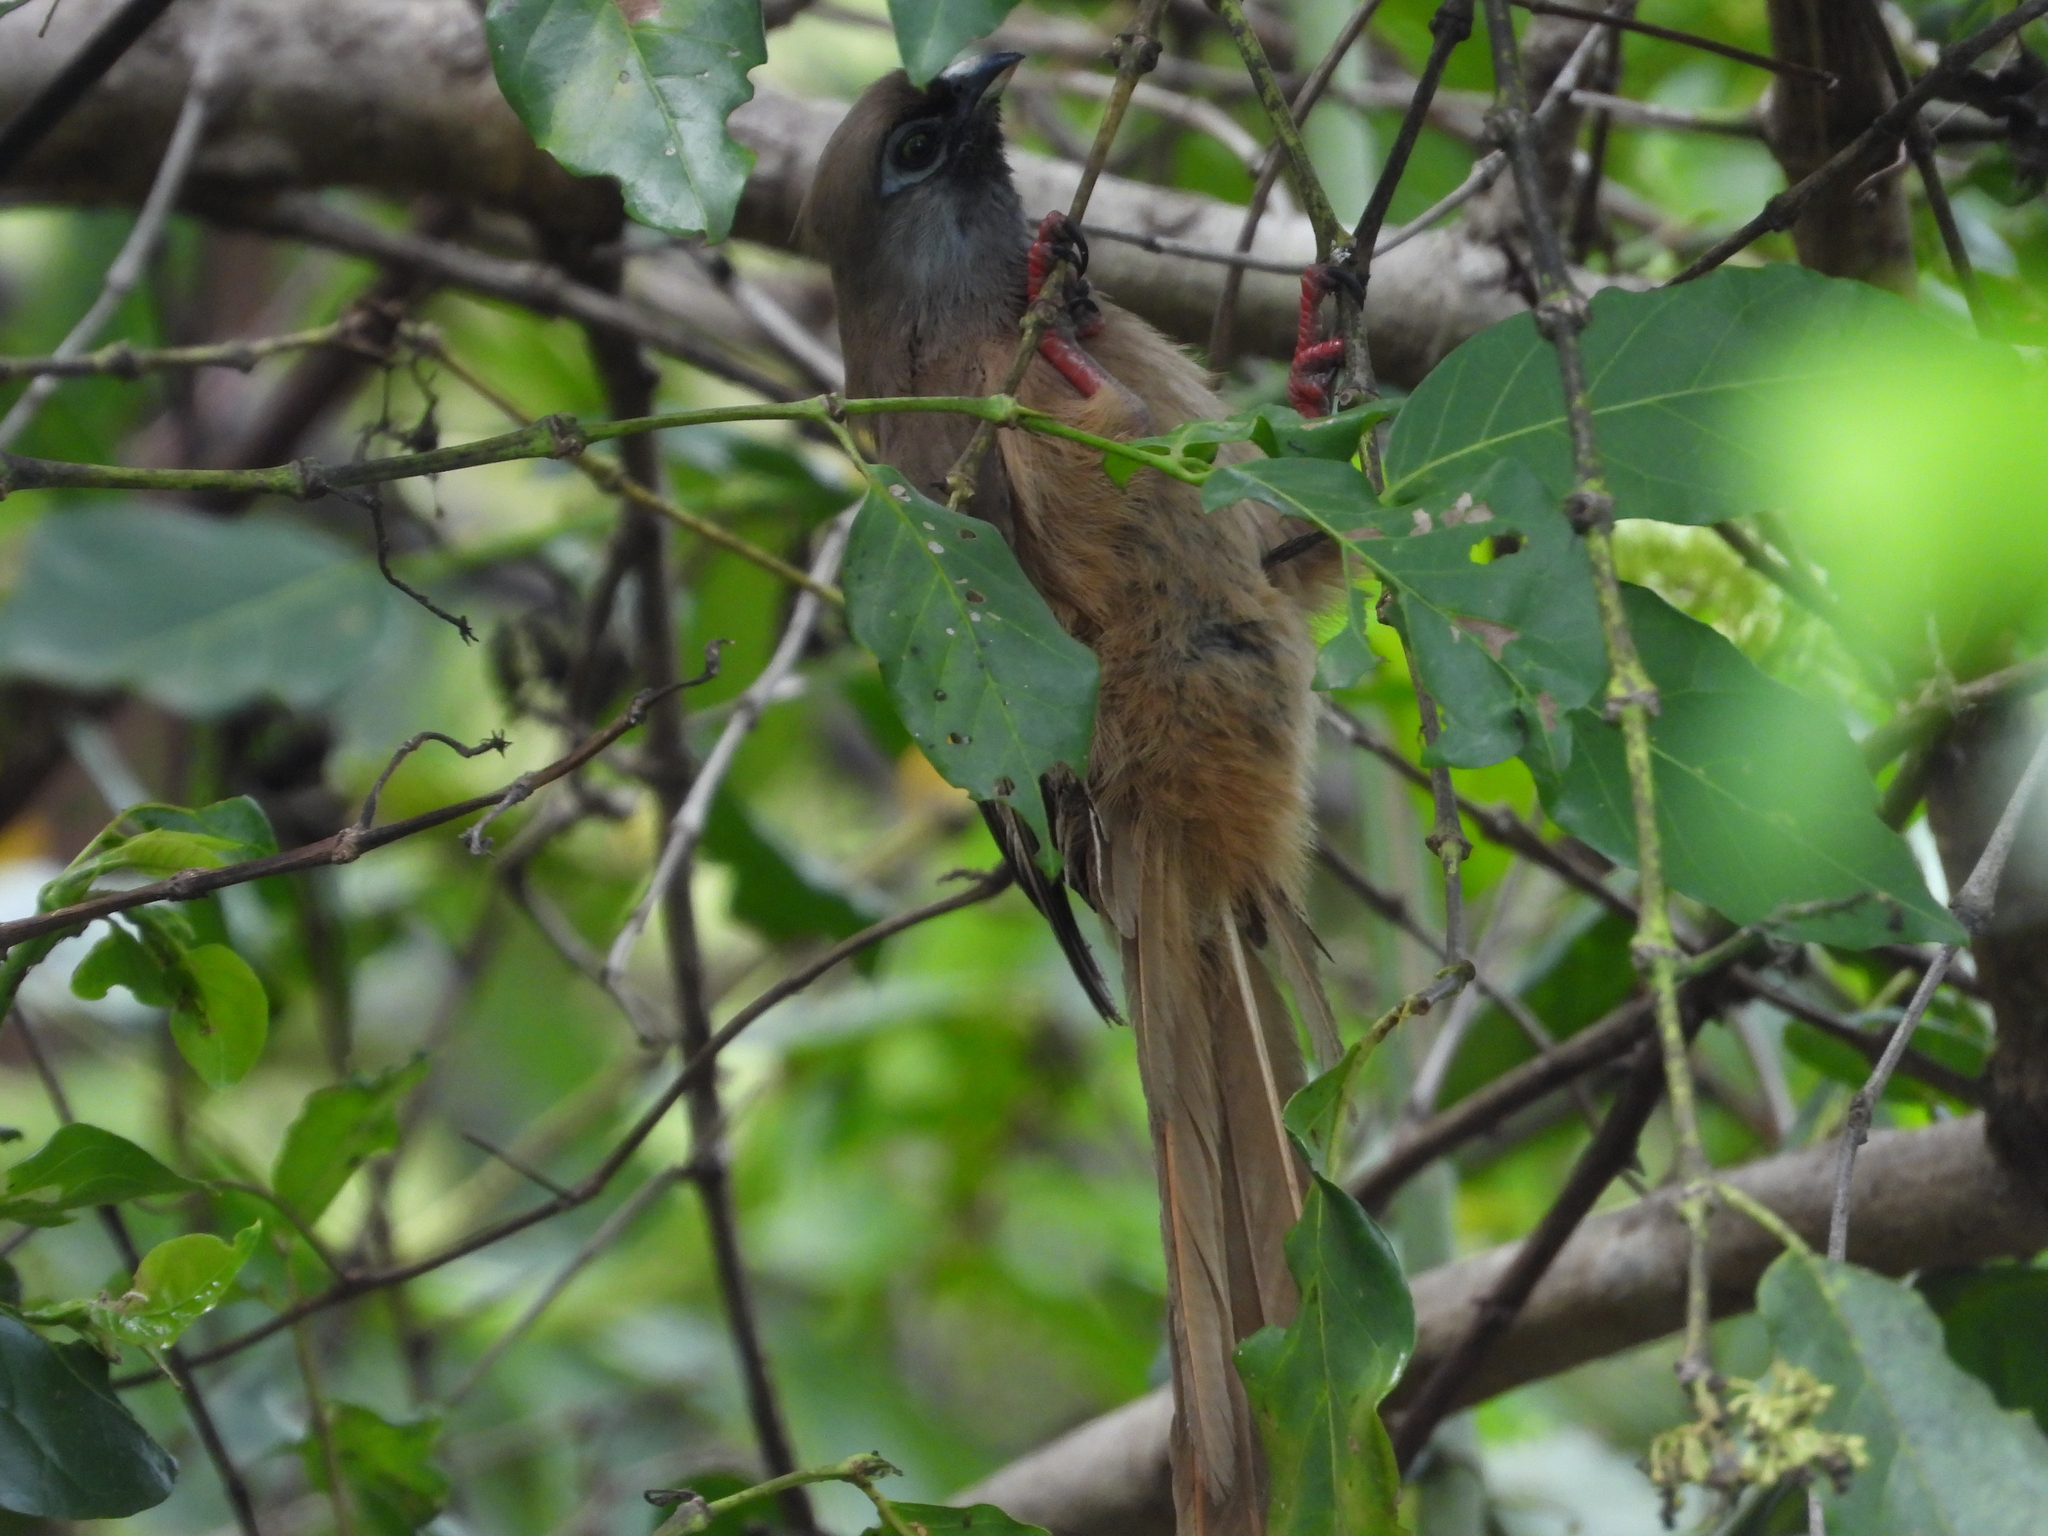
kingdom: Animalia
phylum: Chordata
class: Aves
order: Coliiformes
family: Coliidae
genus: Colius
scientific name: Colius striatus
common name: Speckled mousebird
